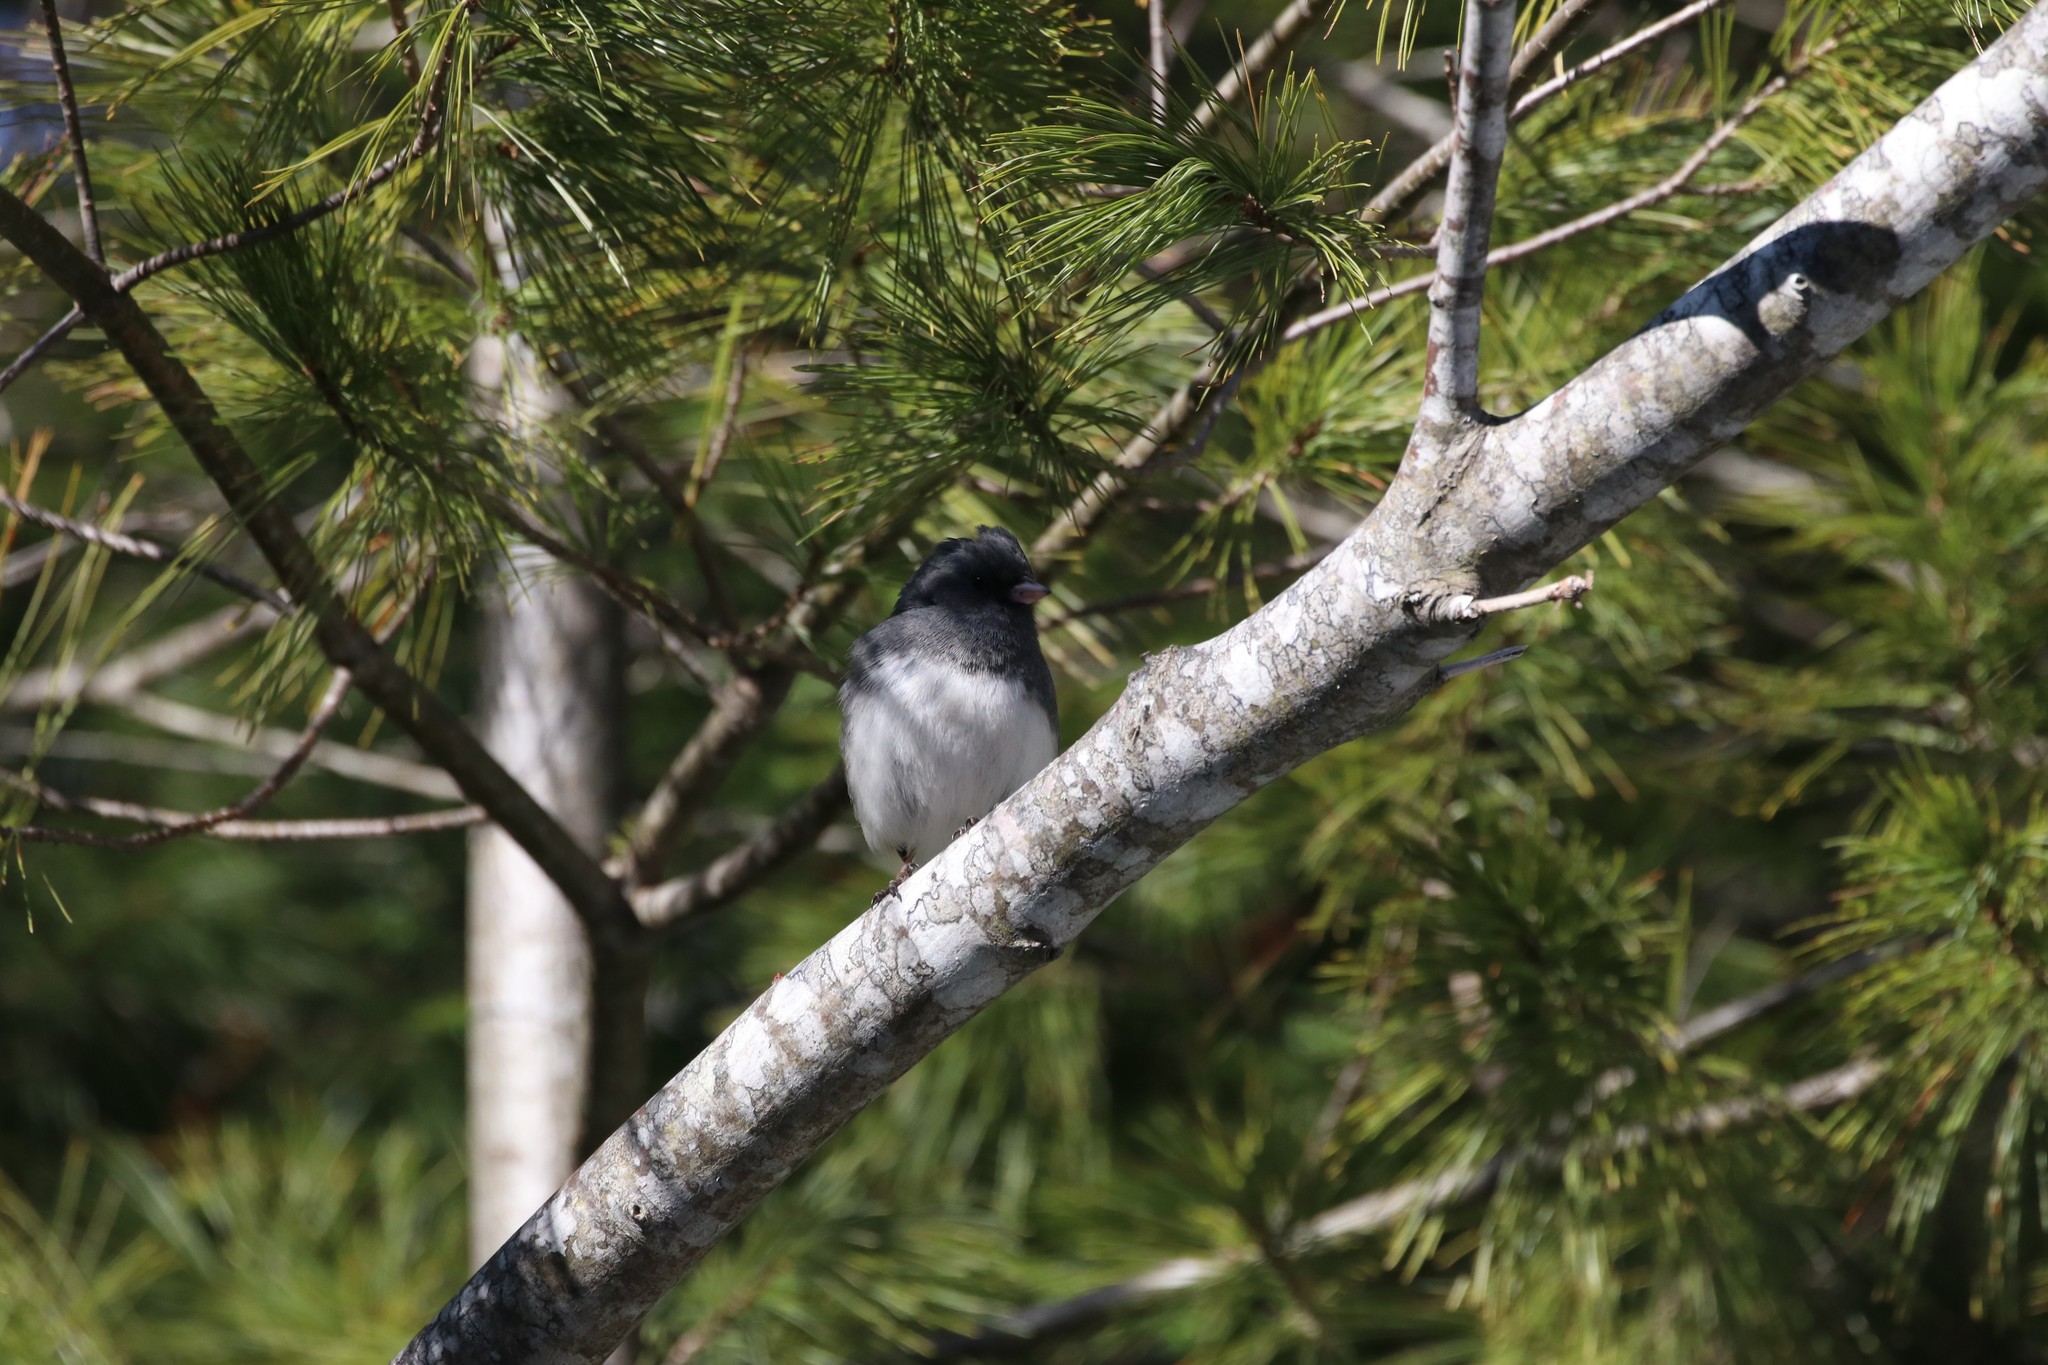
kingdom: Animalia
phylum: Chordata
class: Aves
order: Passeriformes
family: Passerellidae
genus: Junco
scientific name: Junco hyemalis
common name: Dark-eyed junco
